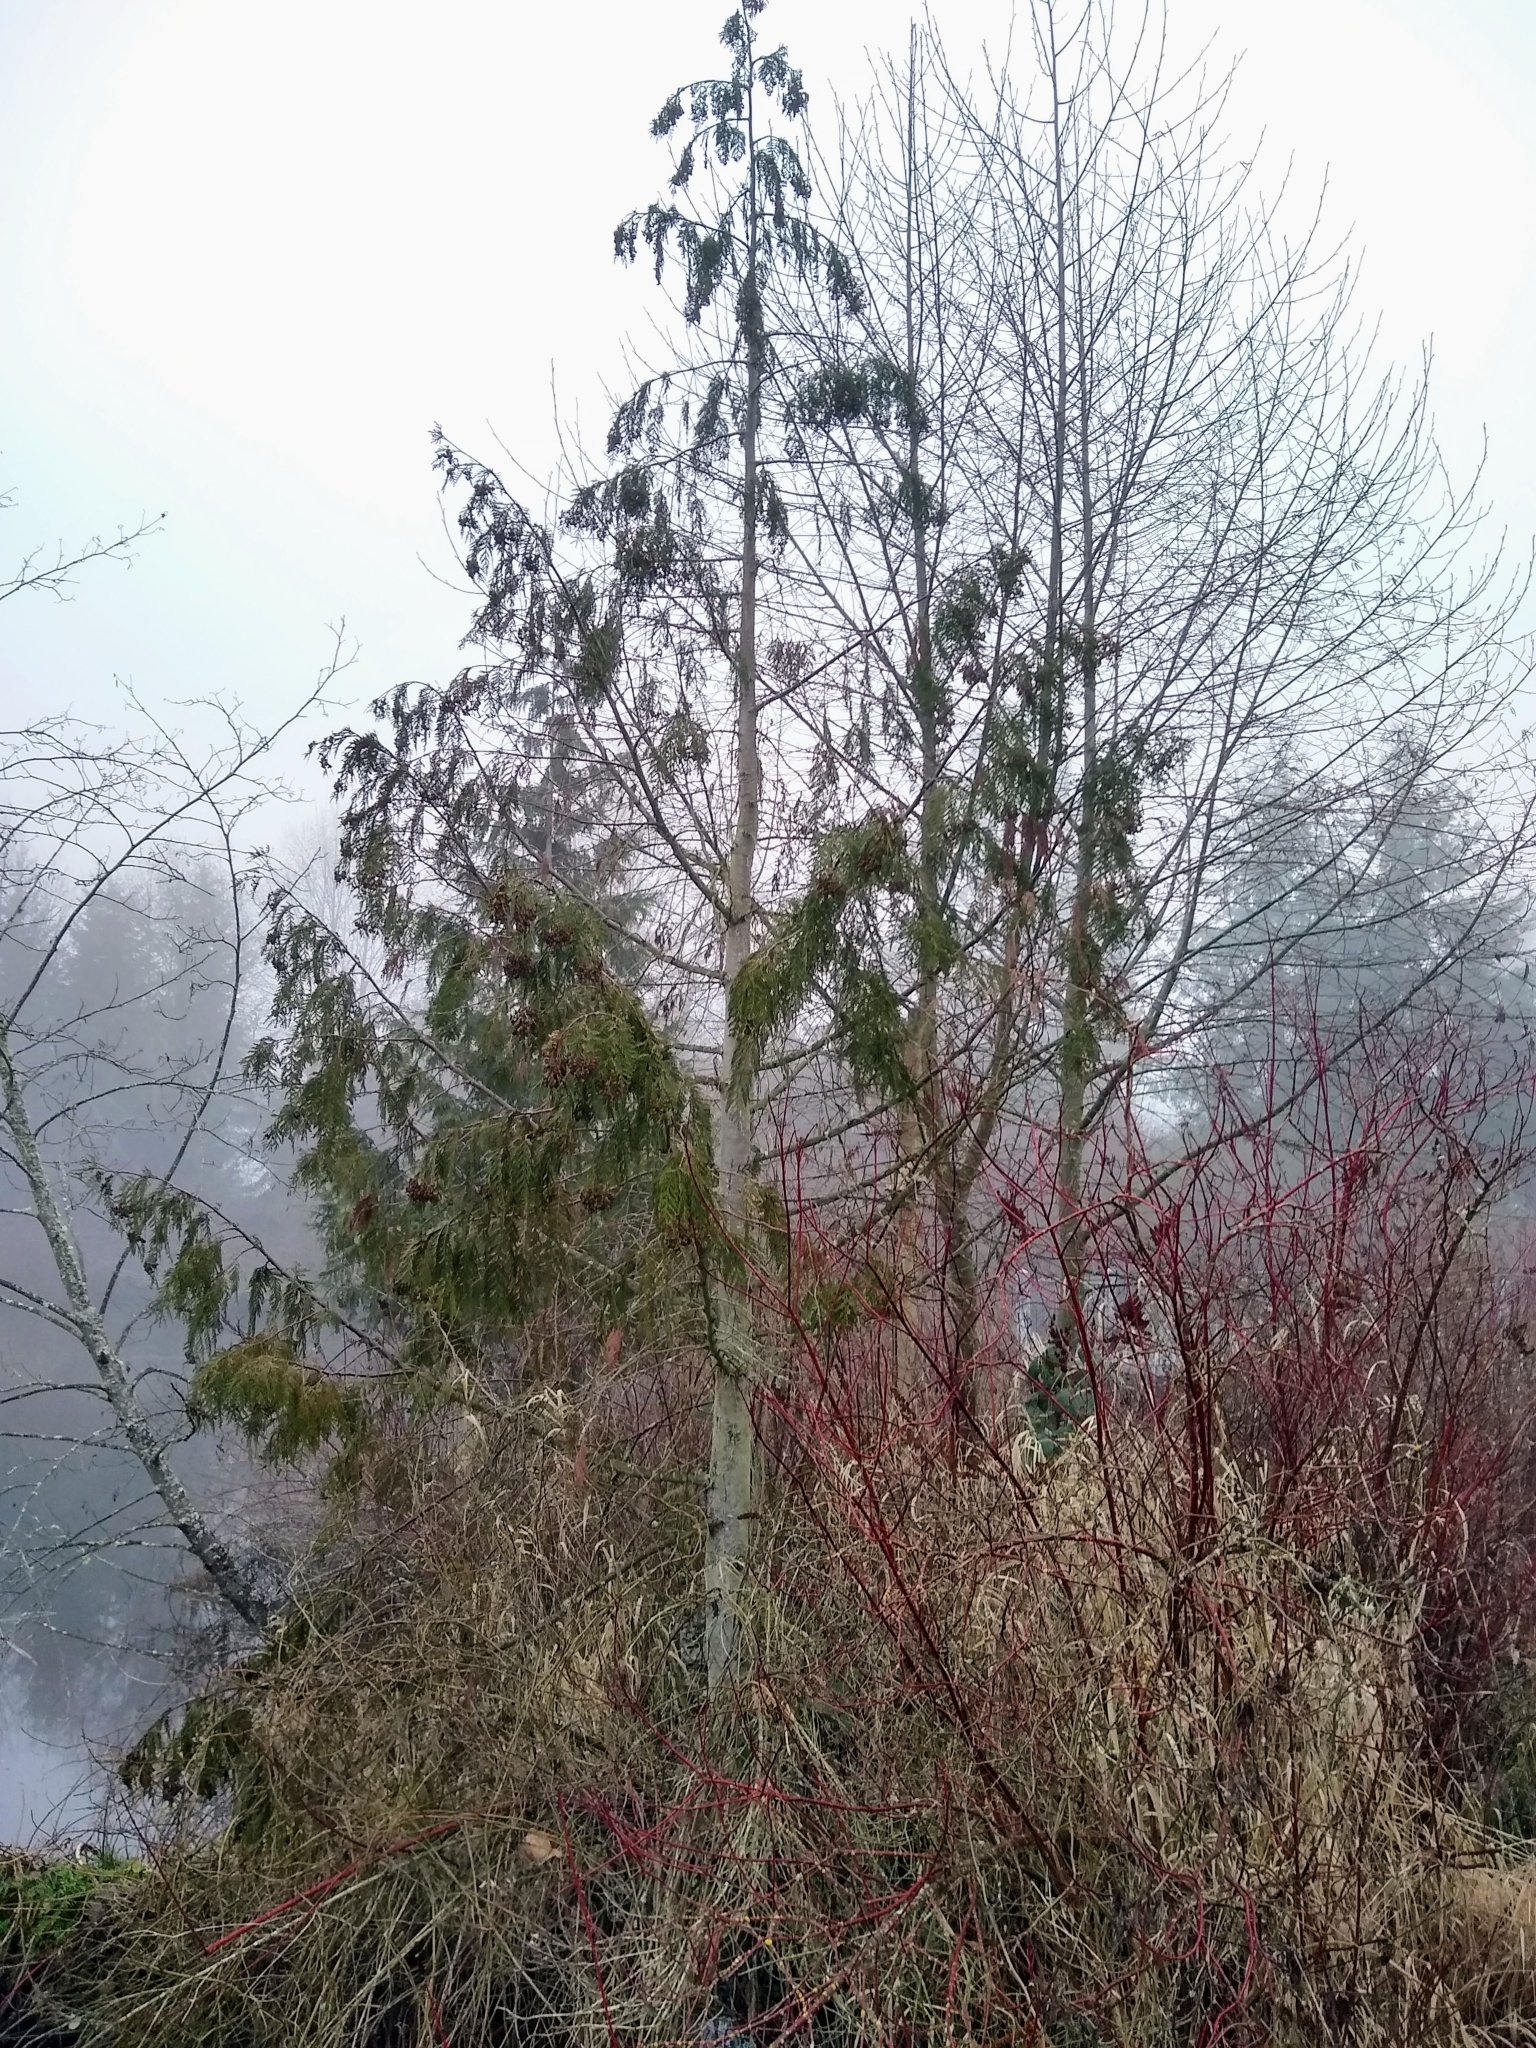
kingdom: Plantae
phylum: Tracheophyta
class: Pinopsida
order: Pinales
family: Cupressaceae
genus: Thuja
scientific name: Thuja plicata
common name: Western red-cedar
